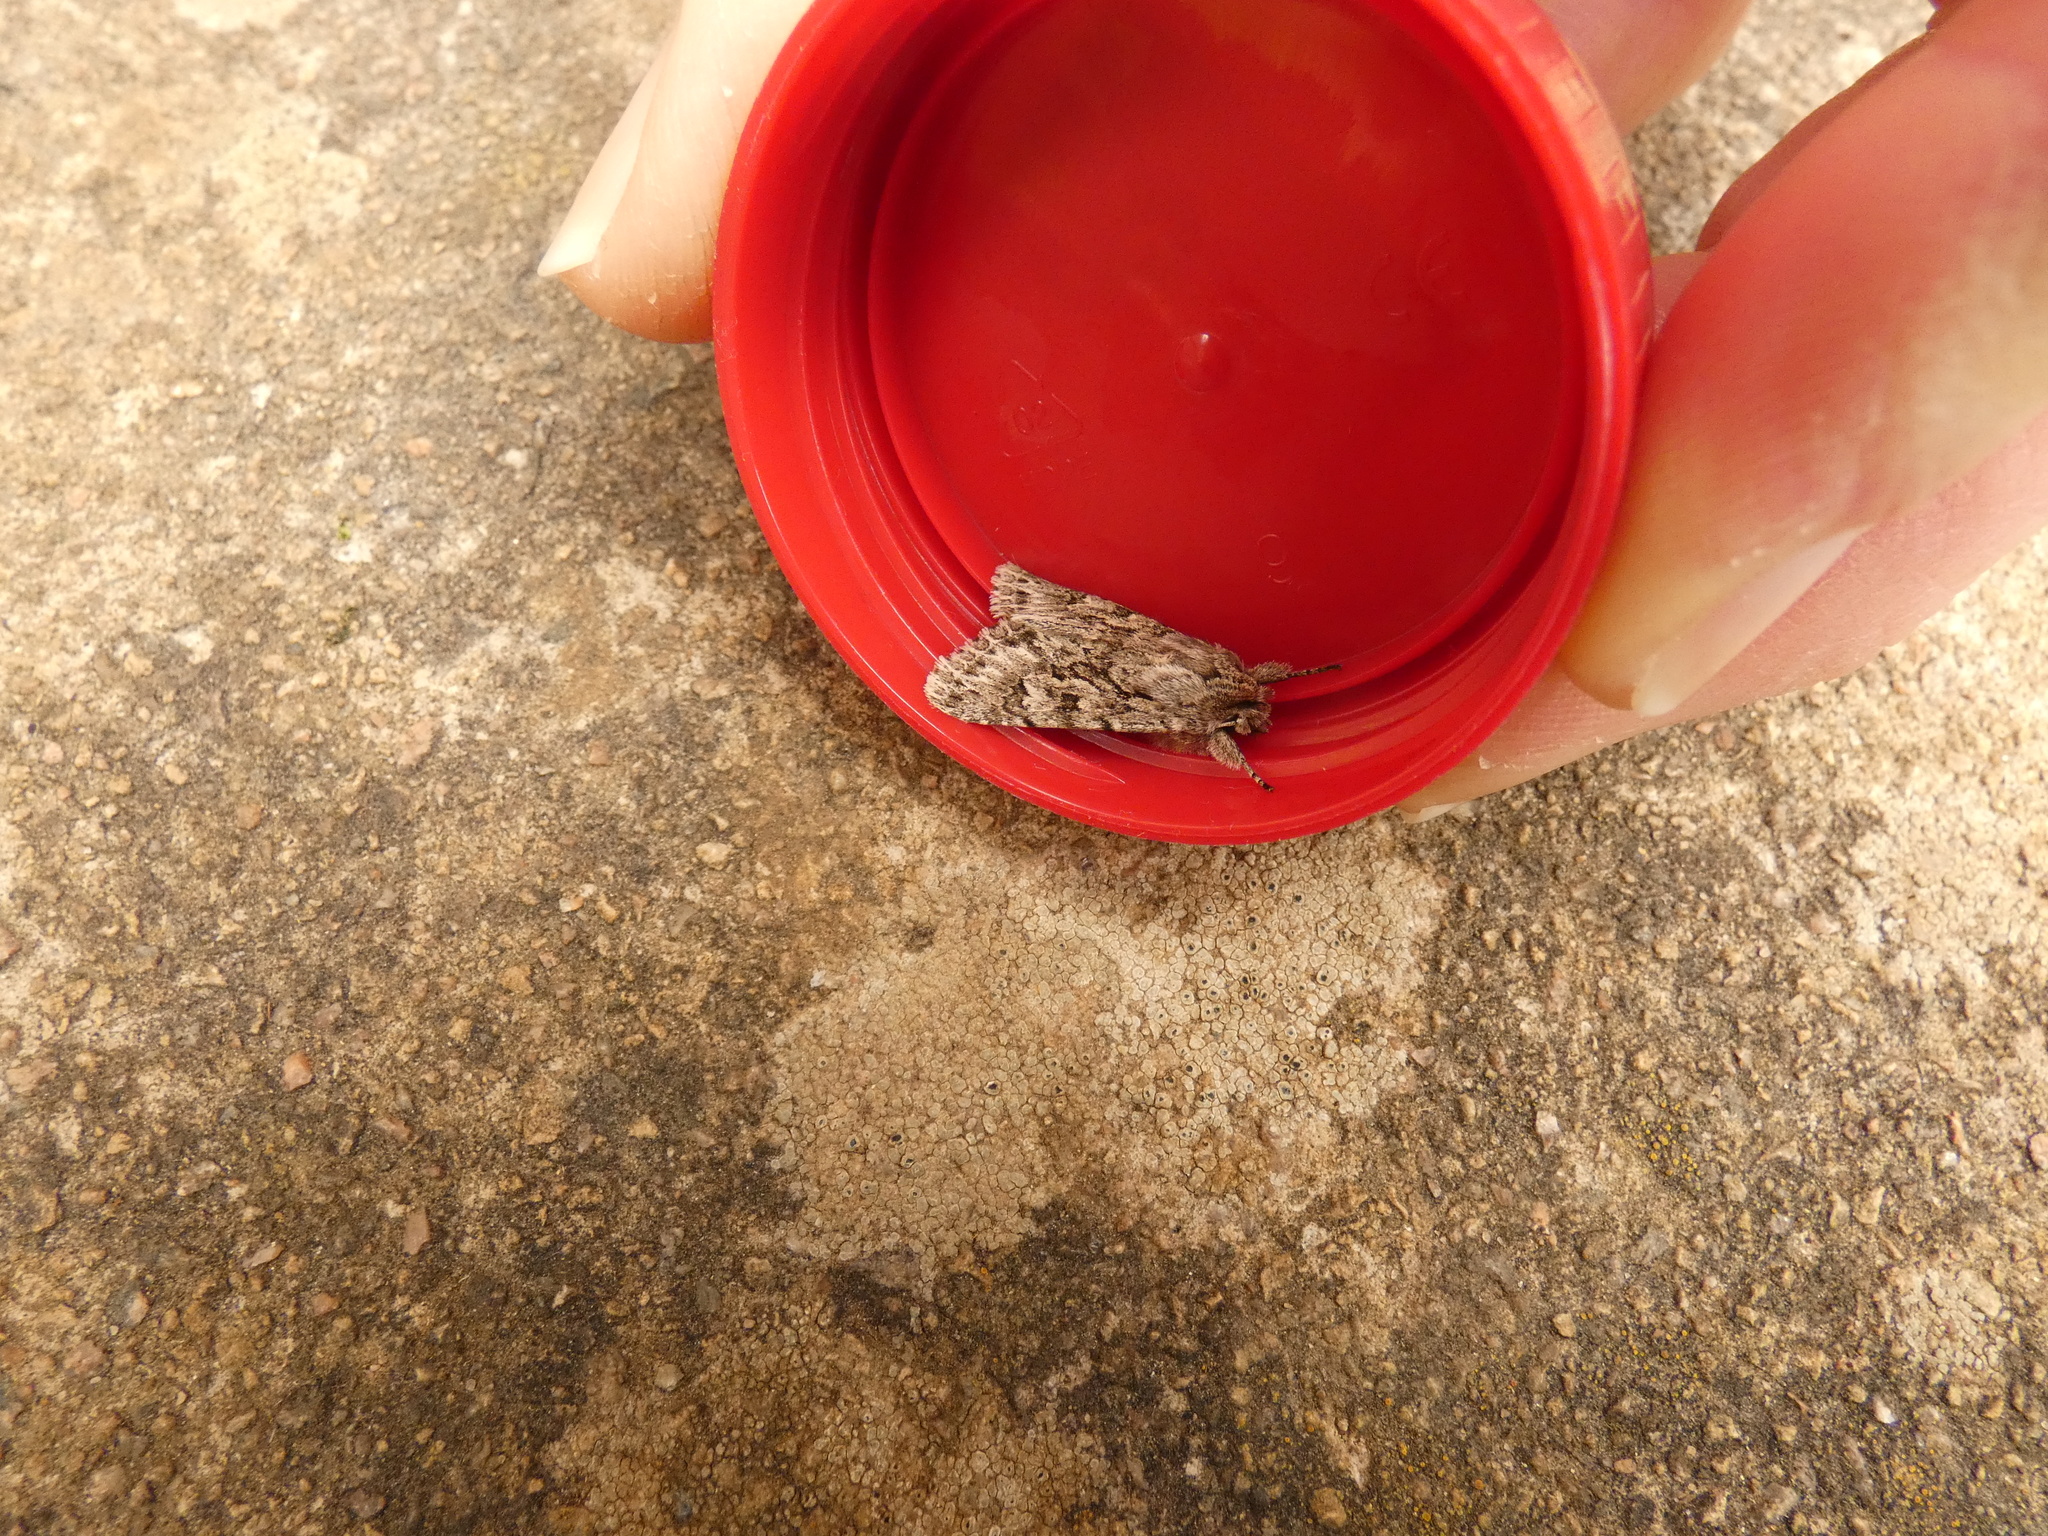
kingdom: Animalia
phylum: Arthropoda
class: Insecta
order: Lepidoptera
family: Noctuidae
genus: Xylocampa
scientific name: Xylocampa areola
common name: Early grey
